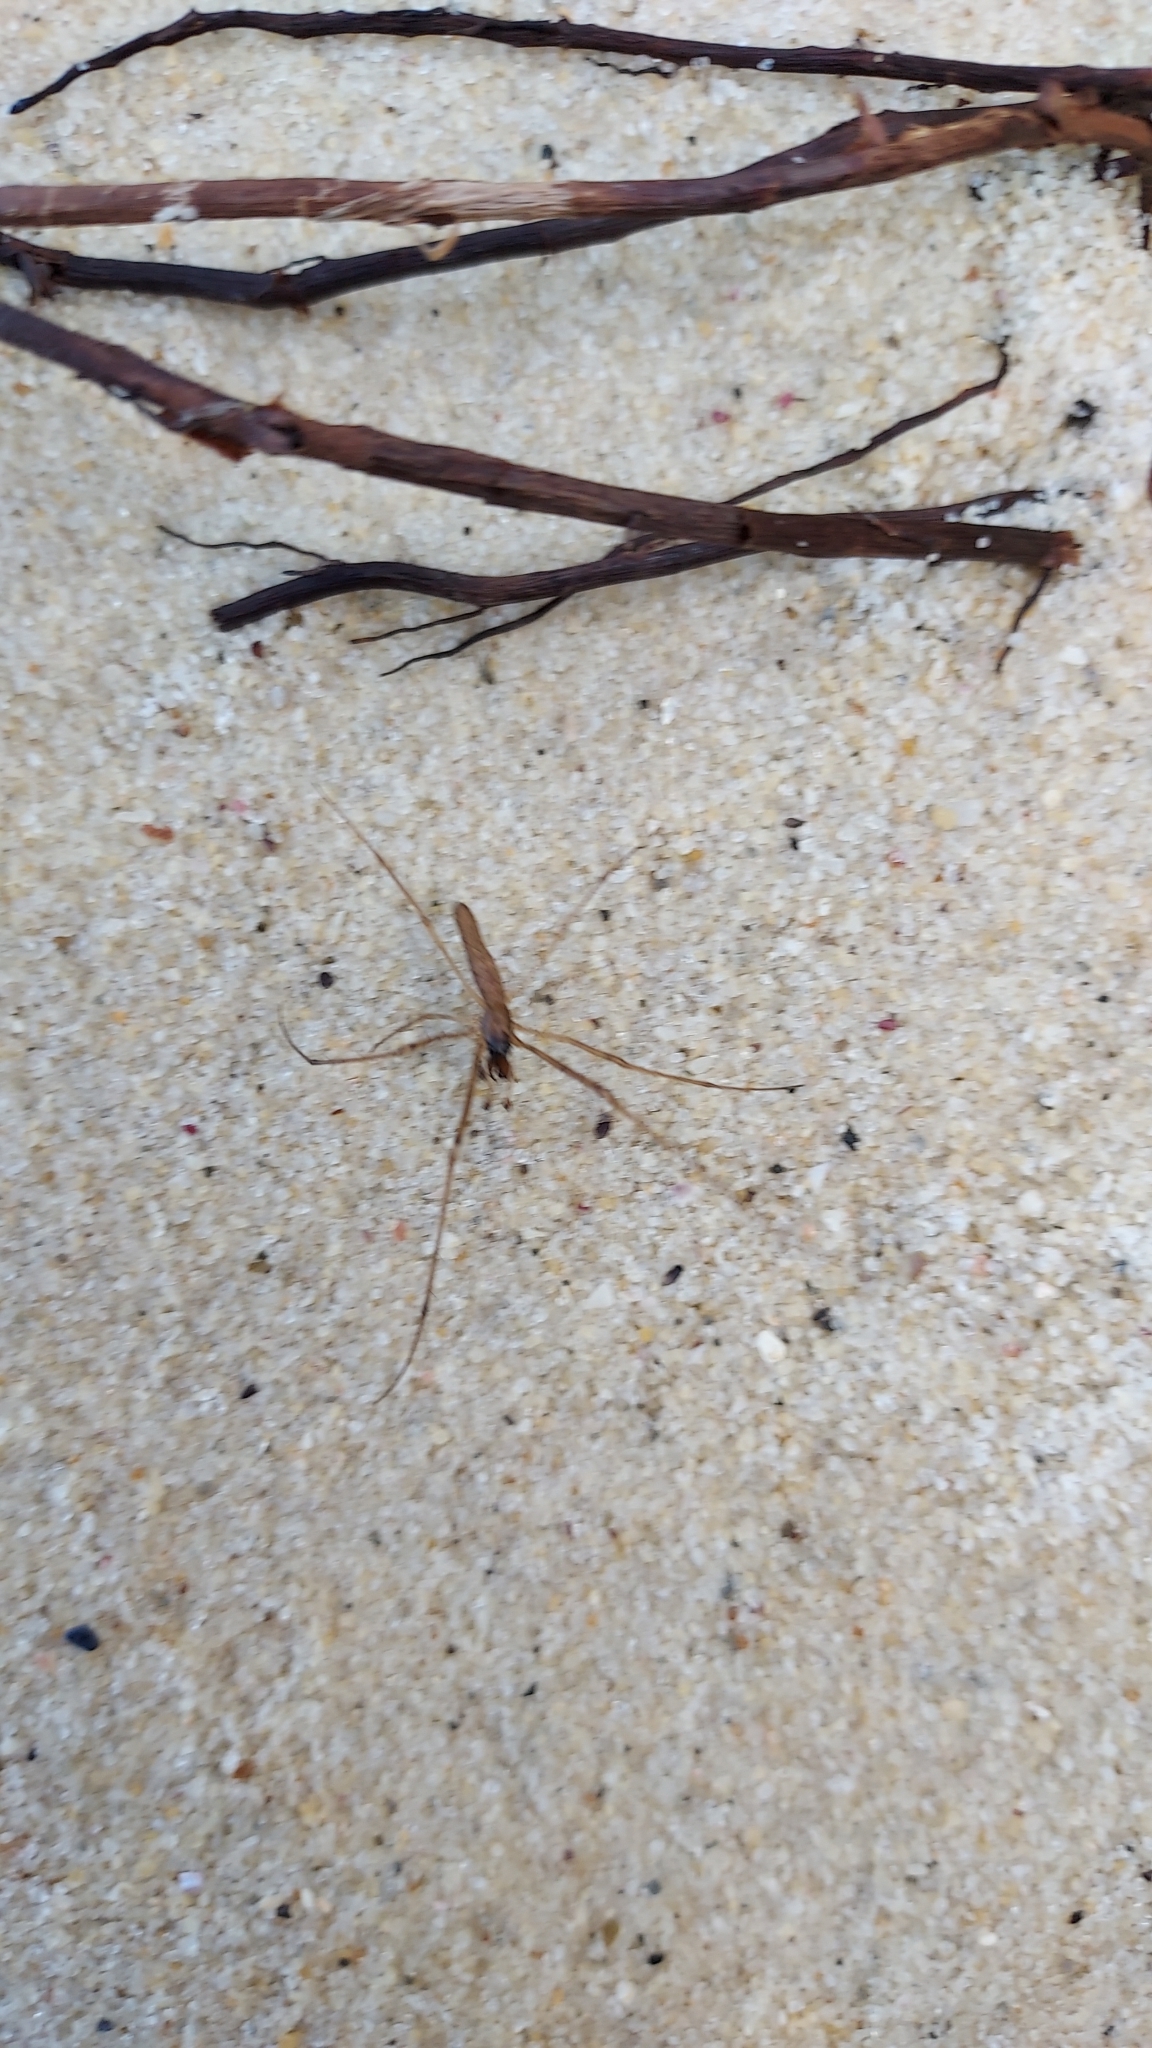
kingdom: Animalia
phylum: Arthropoda
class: Arachnida
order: Araneae
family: Tetragnathidae
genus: Tetragnatha
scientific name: Tetragnatha
